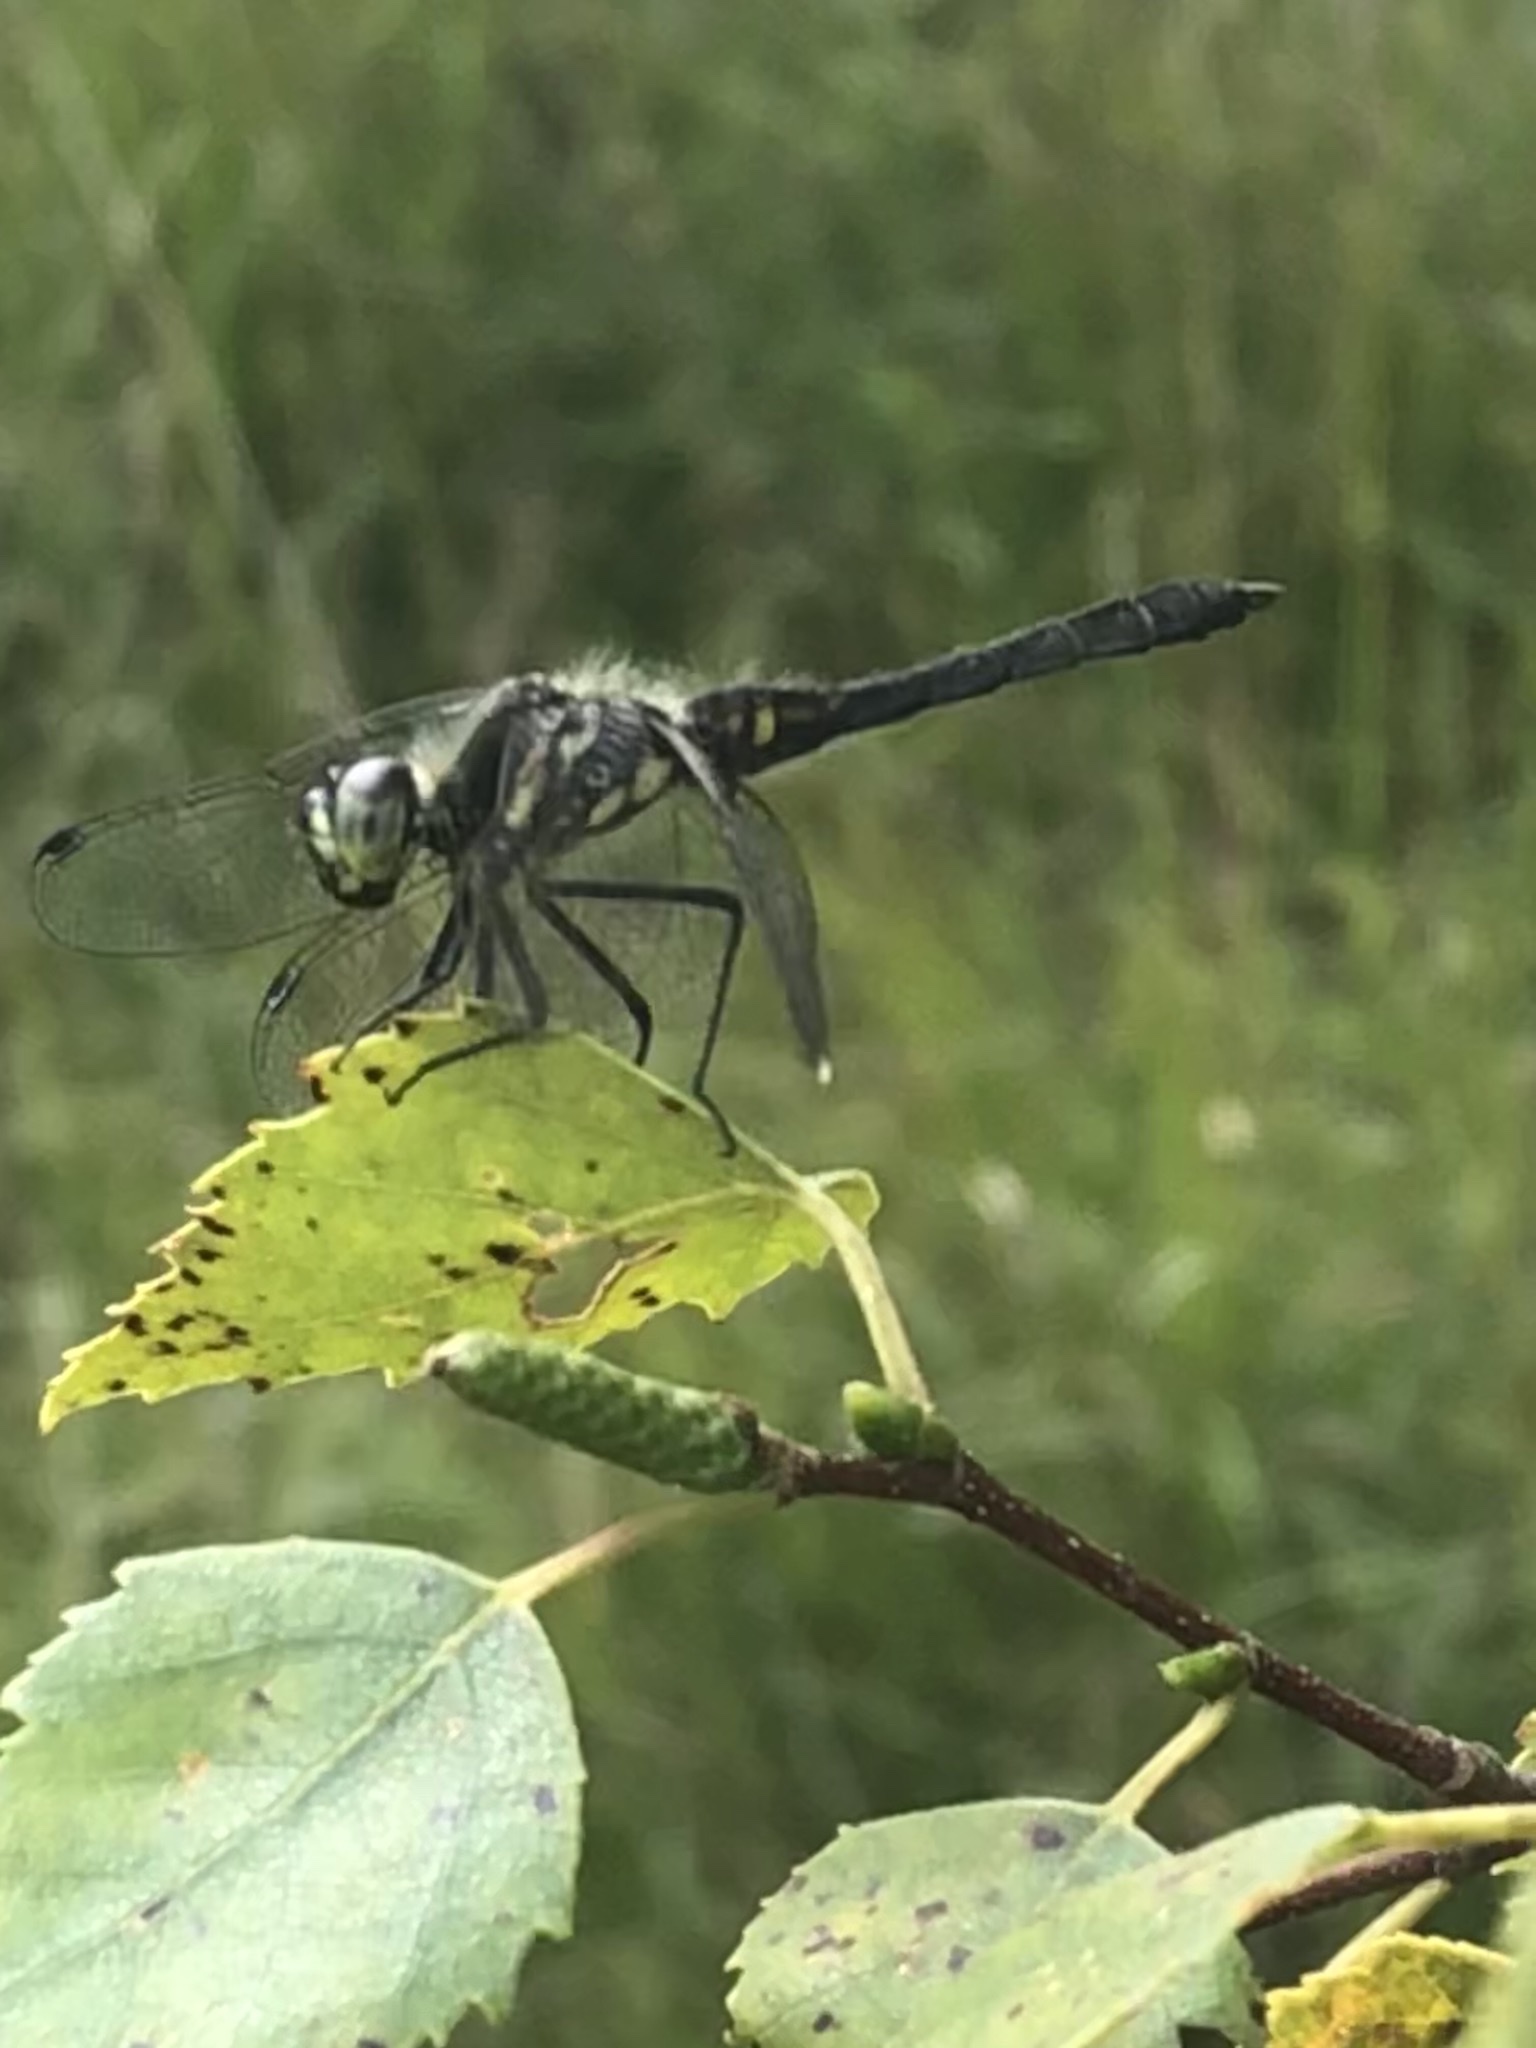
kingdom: Animalia
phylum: Arthropoda
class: Insecta
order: Odonata
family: Libellulidae
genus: Sympetrum
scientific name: Sympetrum danae
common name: Black darter
